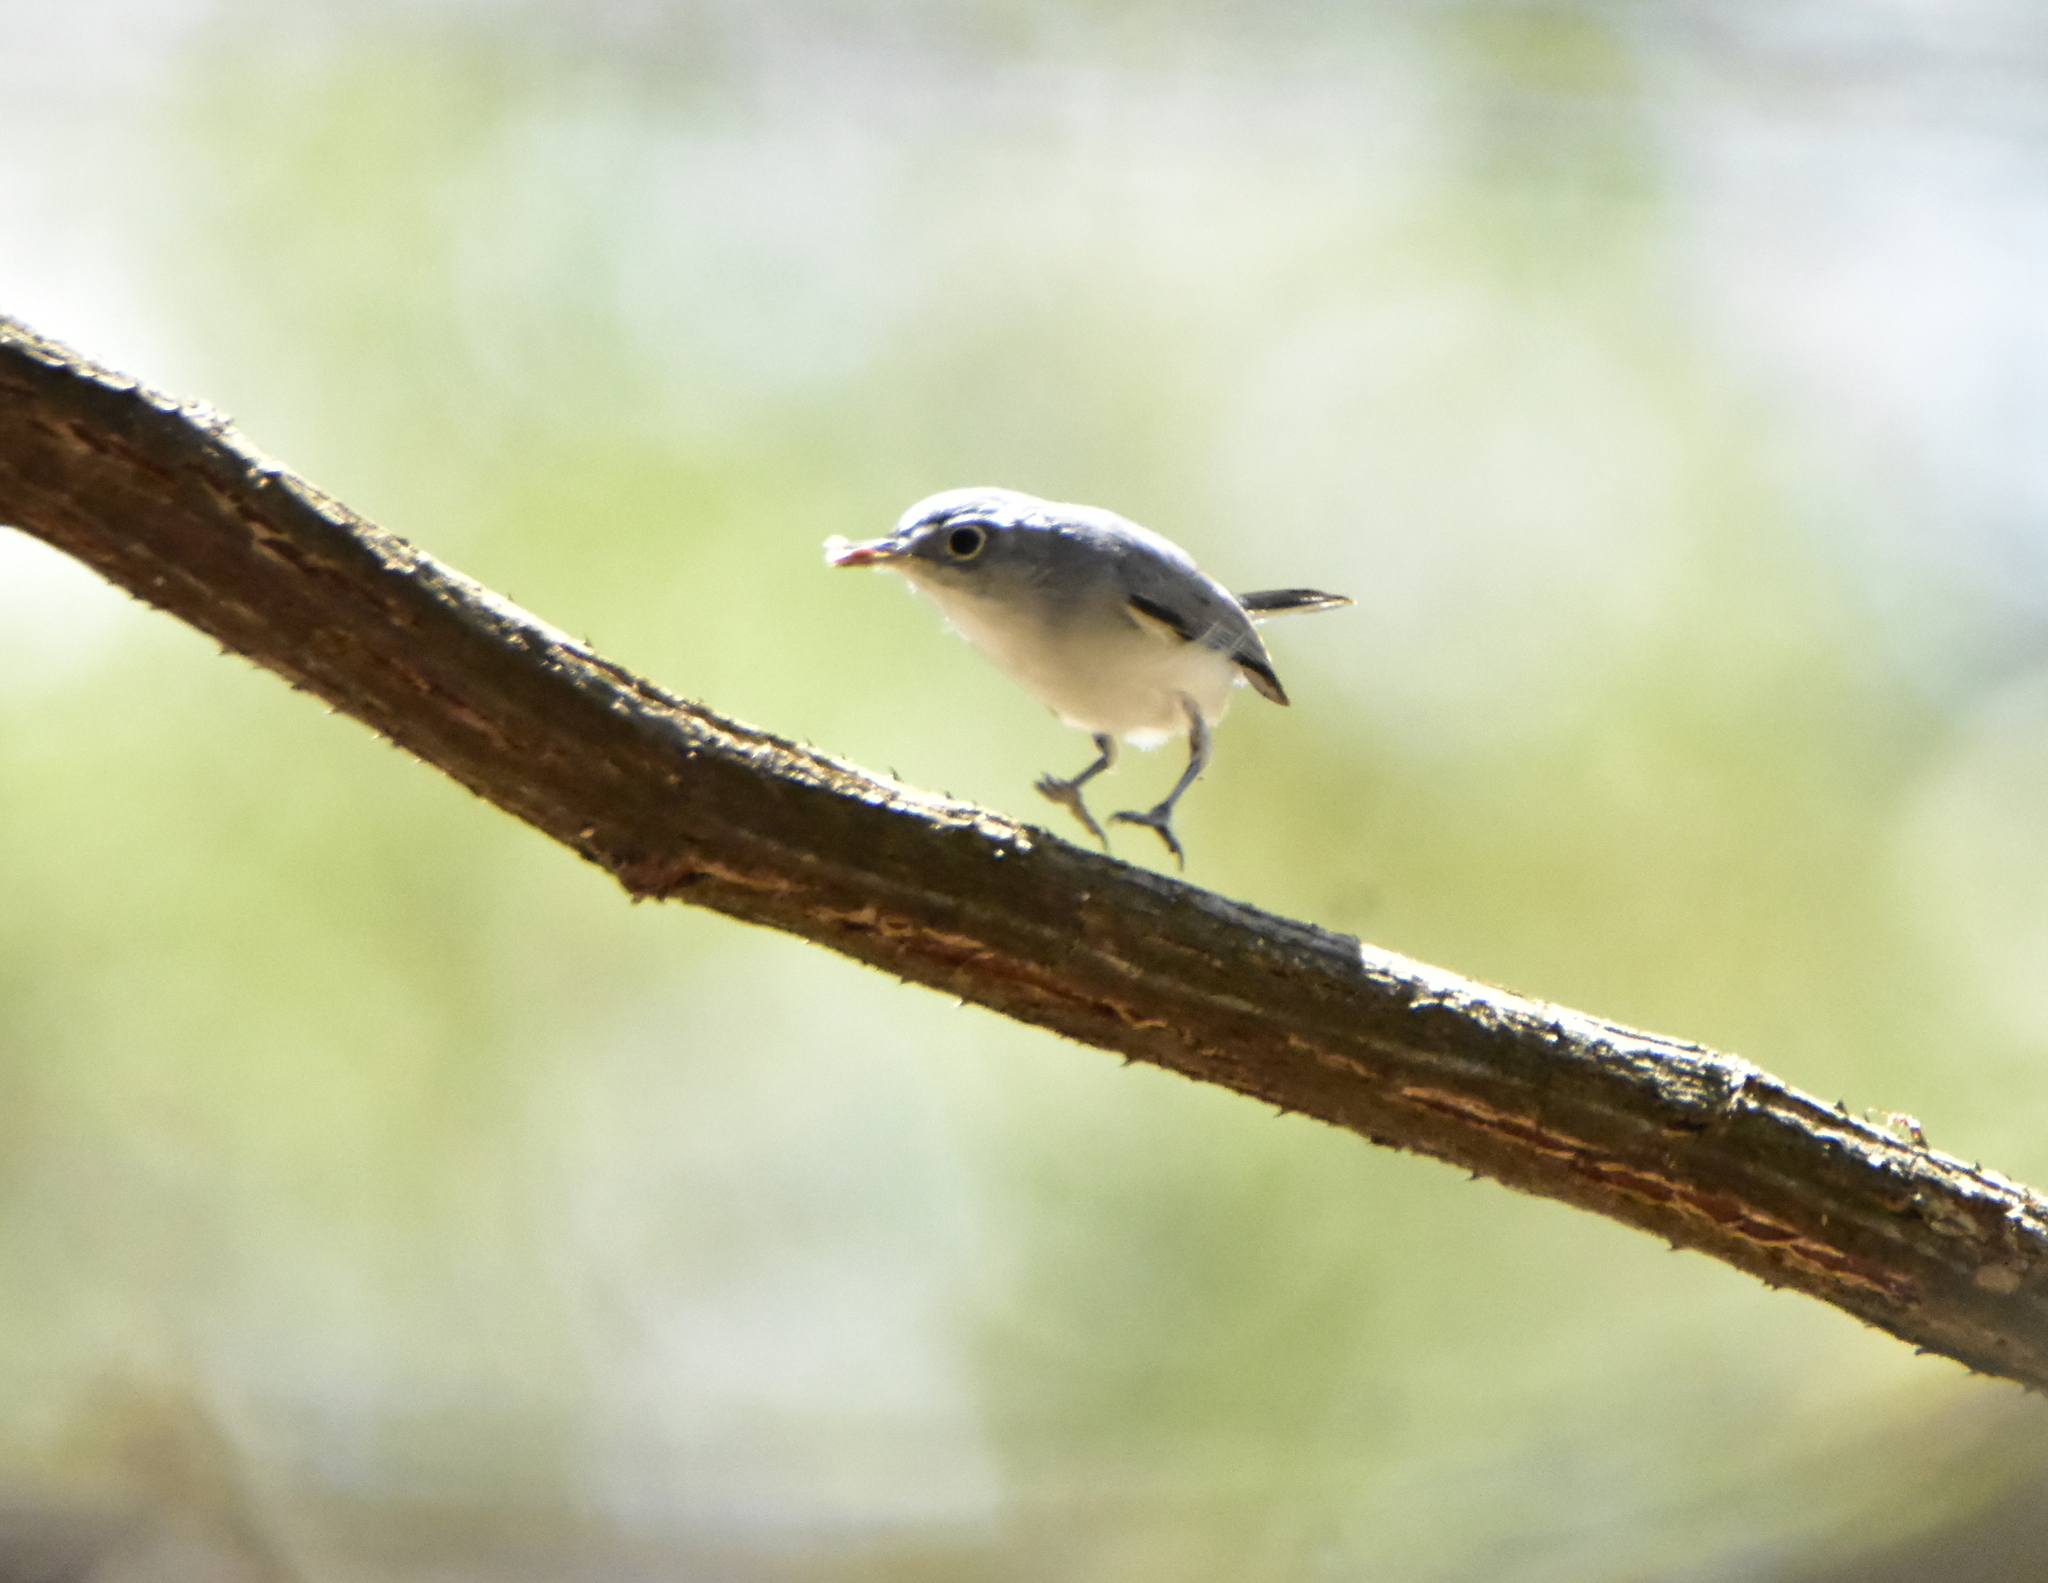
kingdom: Animalia
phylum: Chordata
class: Aves
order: Passeriformes
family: Polioptilidae
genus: Polioptila
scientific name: Polioptila caerulea
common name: Blue-gray gnatcatcher
